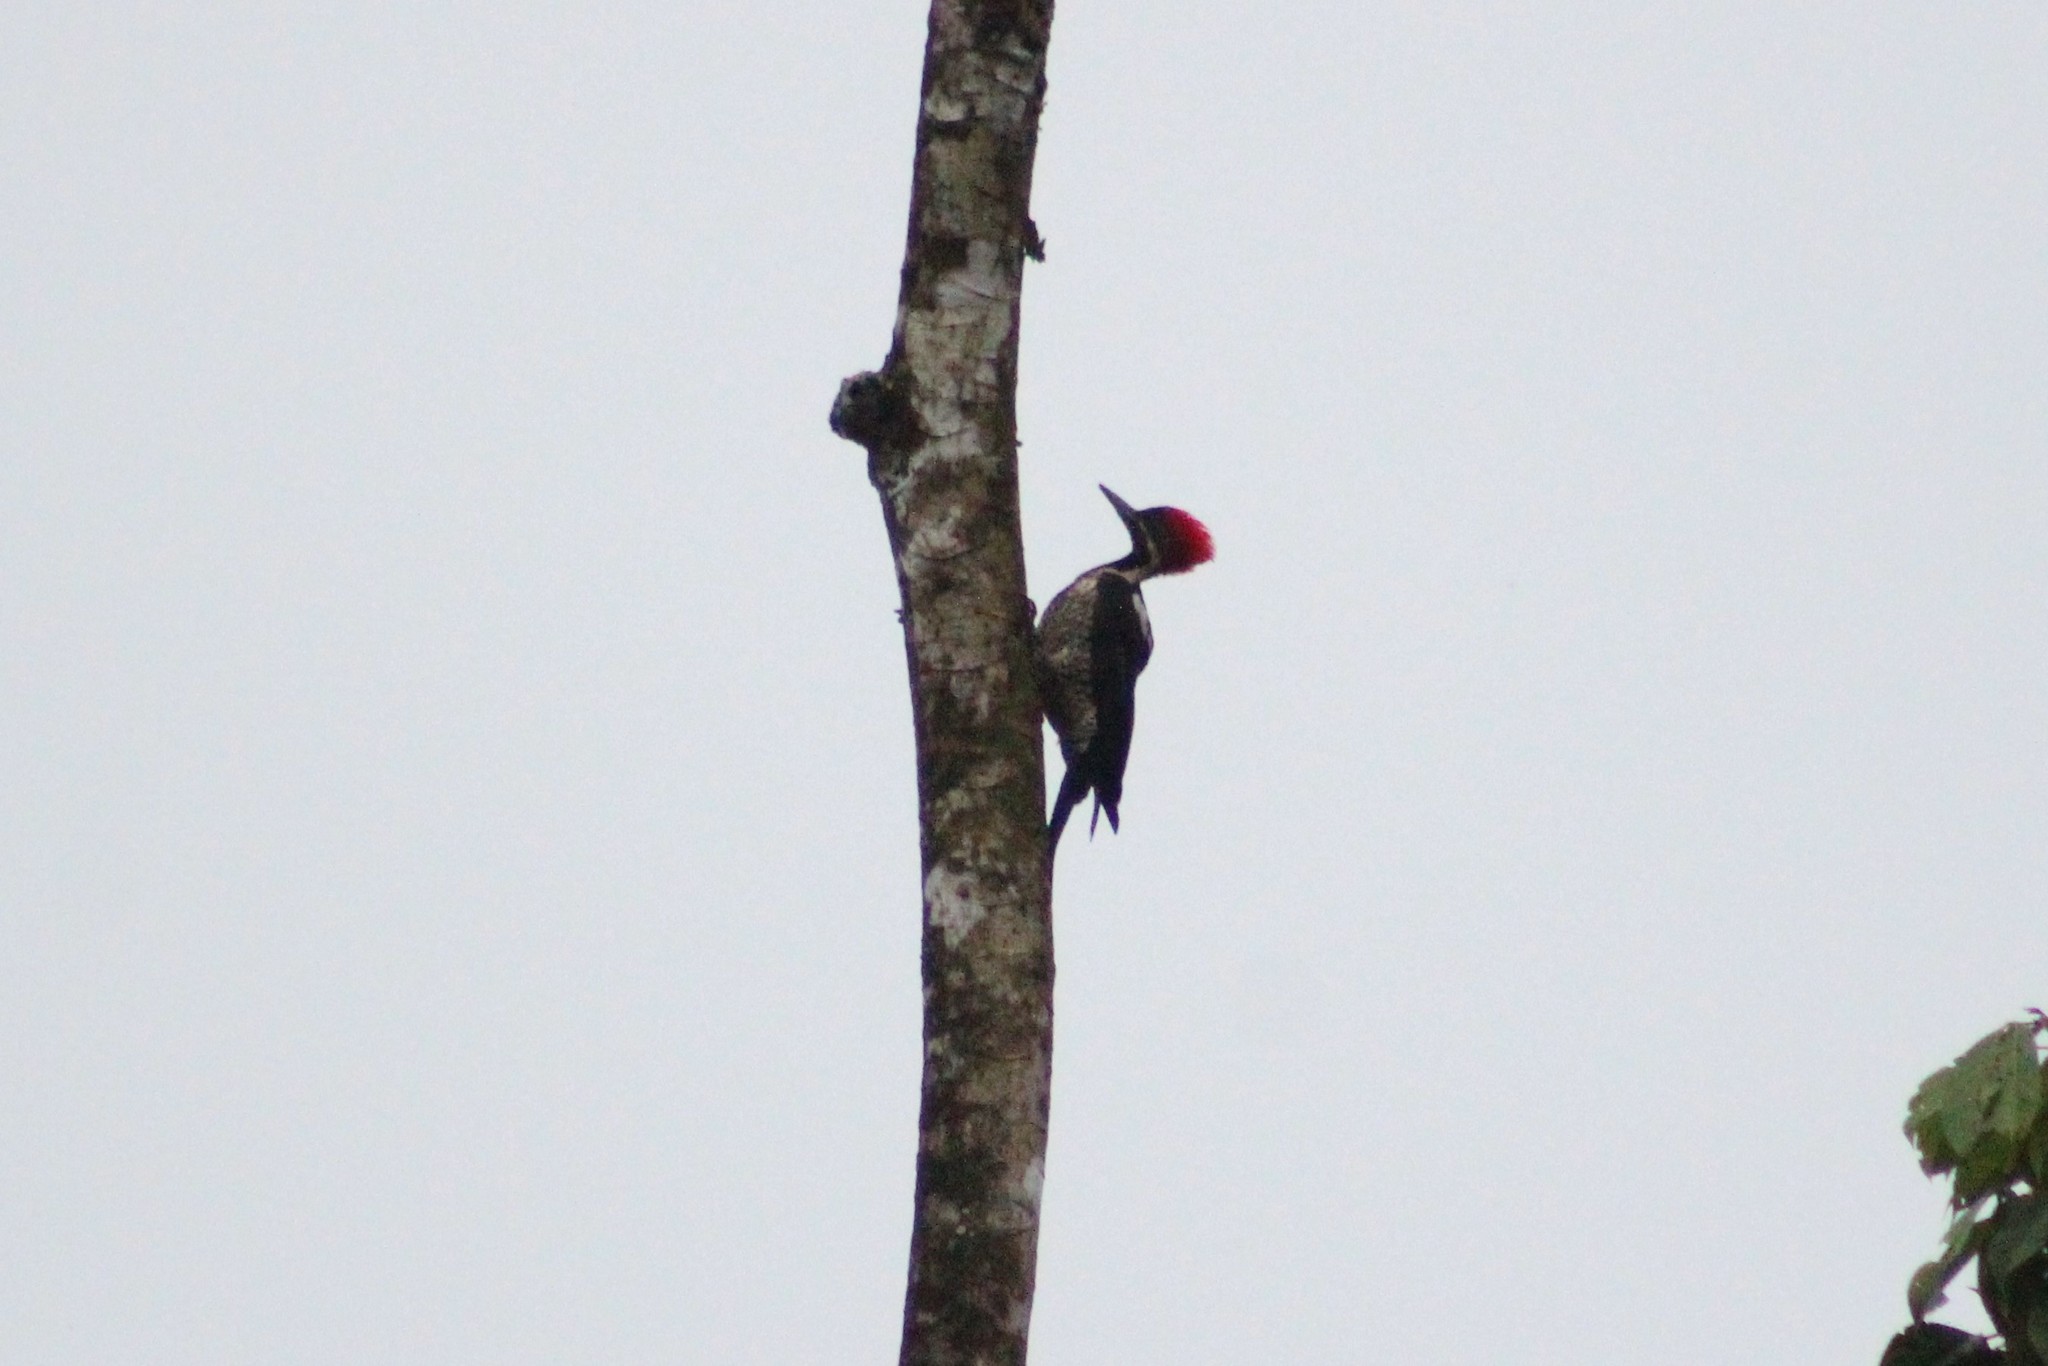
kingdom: Animalia
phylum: Chordata
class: Aves
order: Piciformes
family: Picidae
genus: Dryocopus
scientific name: Dryocopus lineatus
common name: Lineated woodpecker
